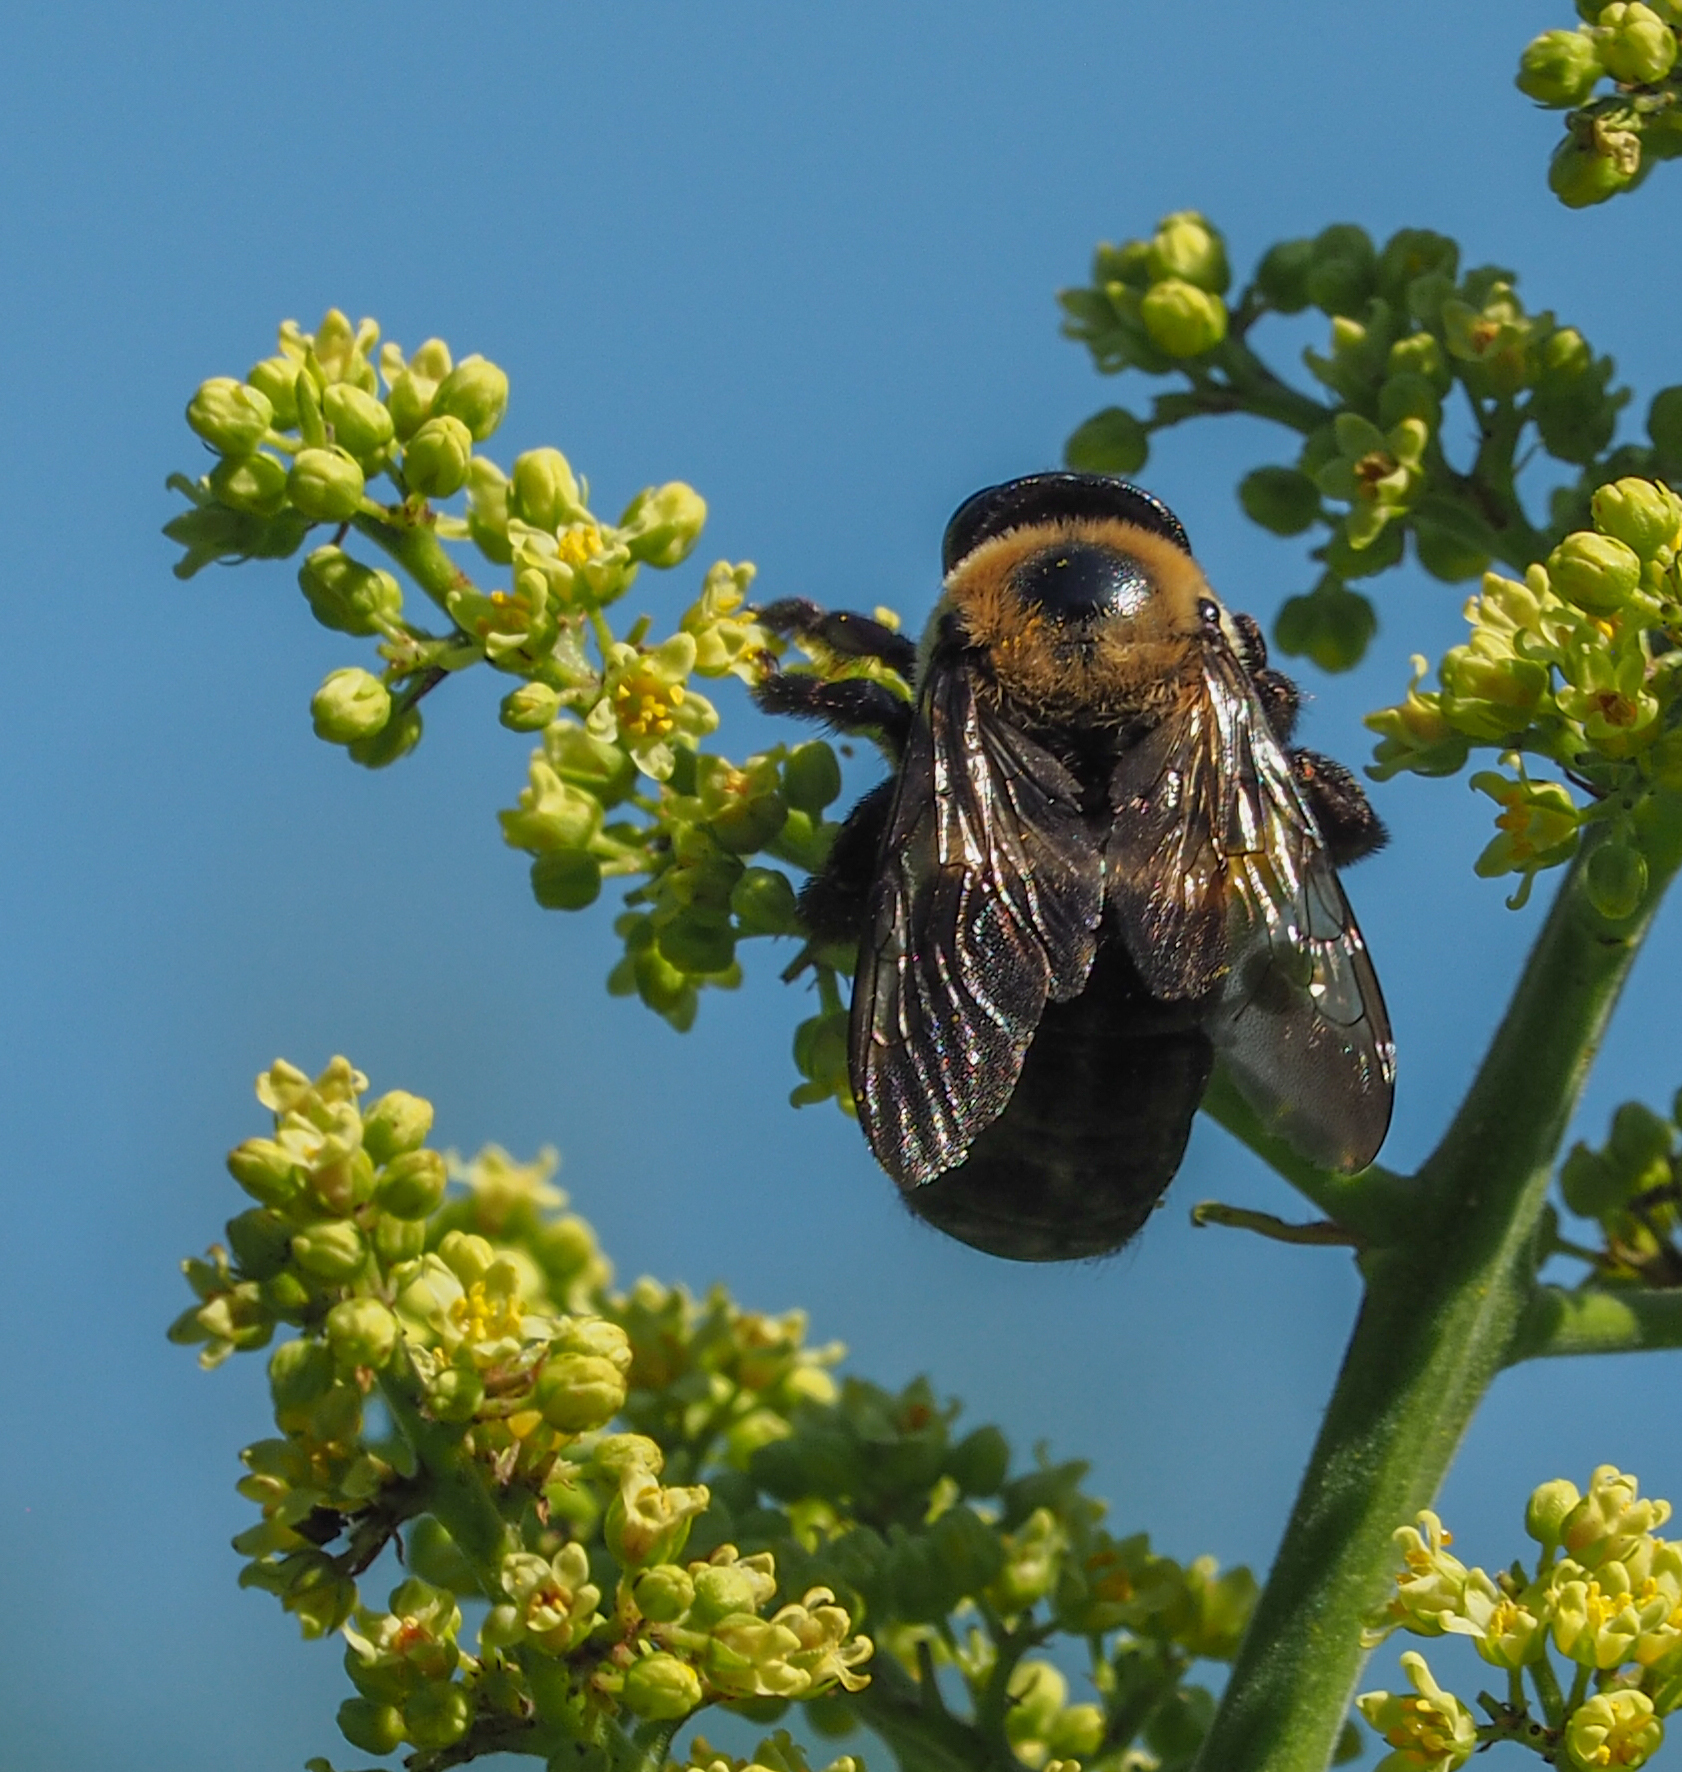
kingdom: Animalia
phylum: Arthropoda
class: Insecta
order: Hymenoptera
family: Apidae
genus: Xylocopa
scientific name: Xylocopa virginica
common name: Carpenter bee
